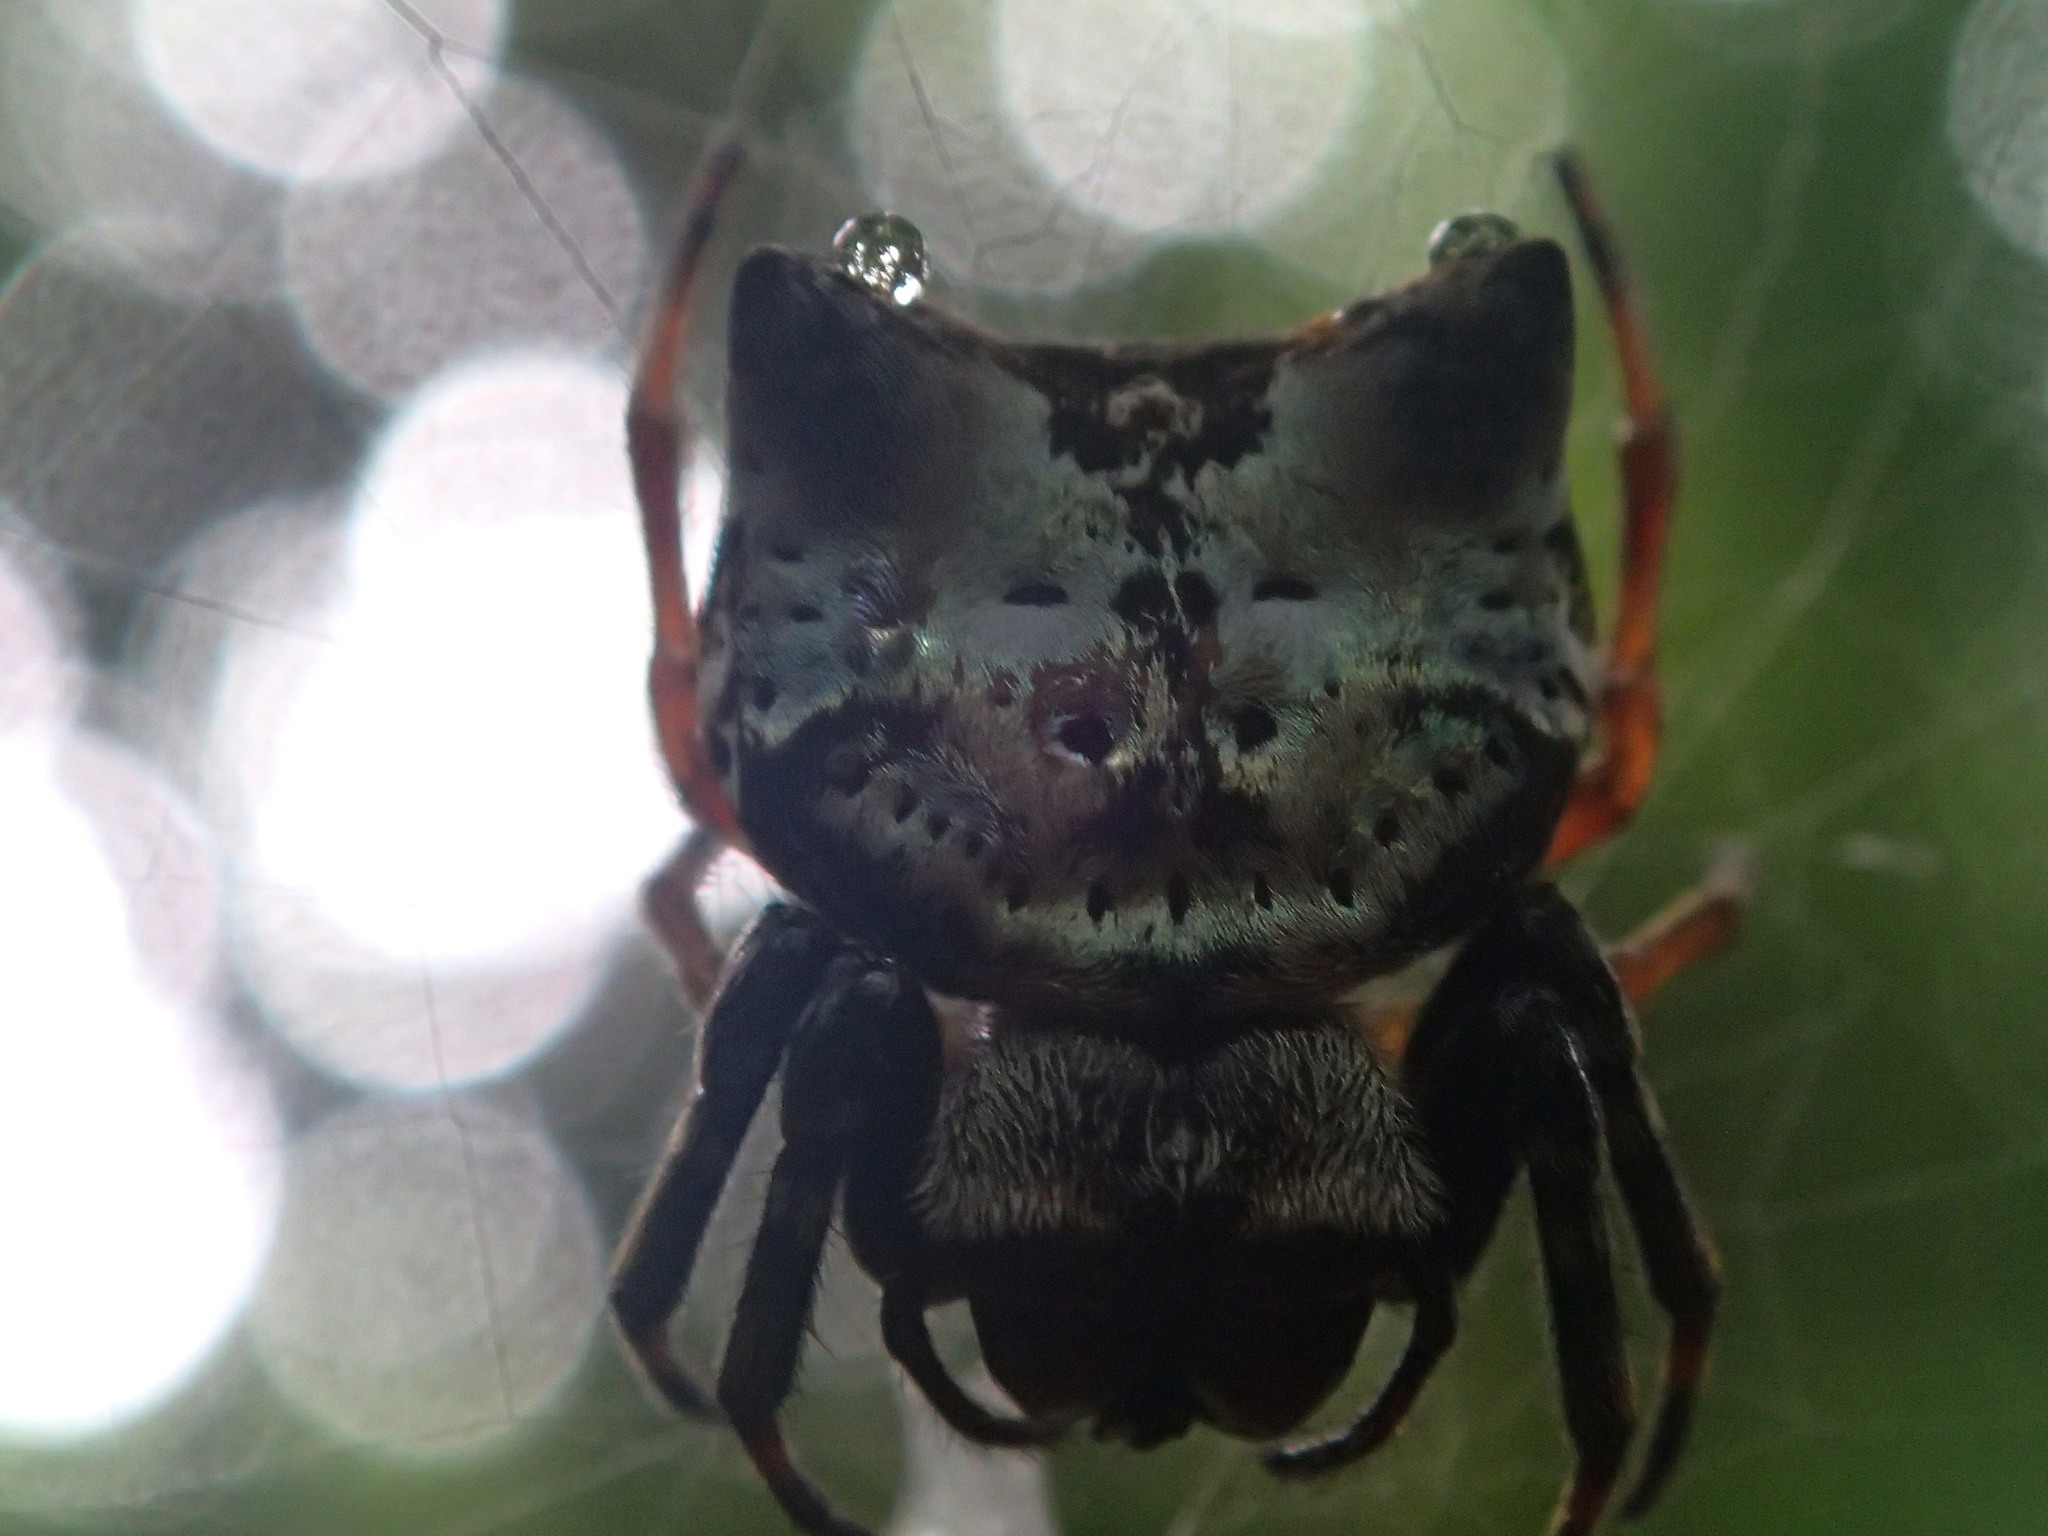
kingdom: Animalia
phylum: Arthropoda
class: Arachnida
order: Araneae
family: Araneidae
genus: Aspidolasius
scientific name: Aspidolasius branicki
